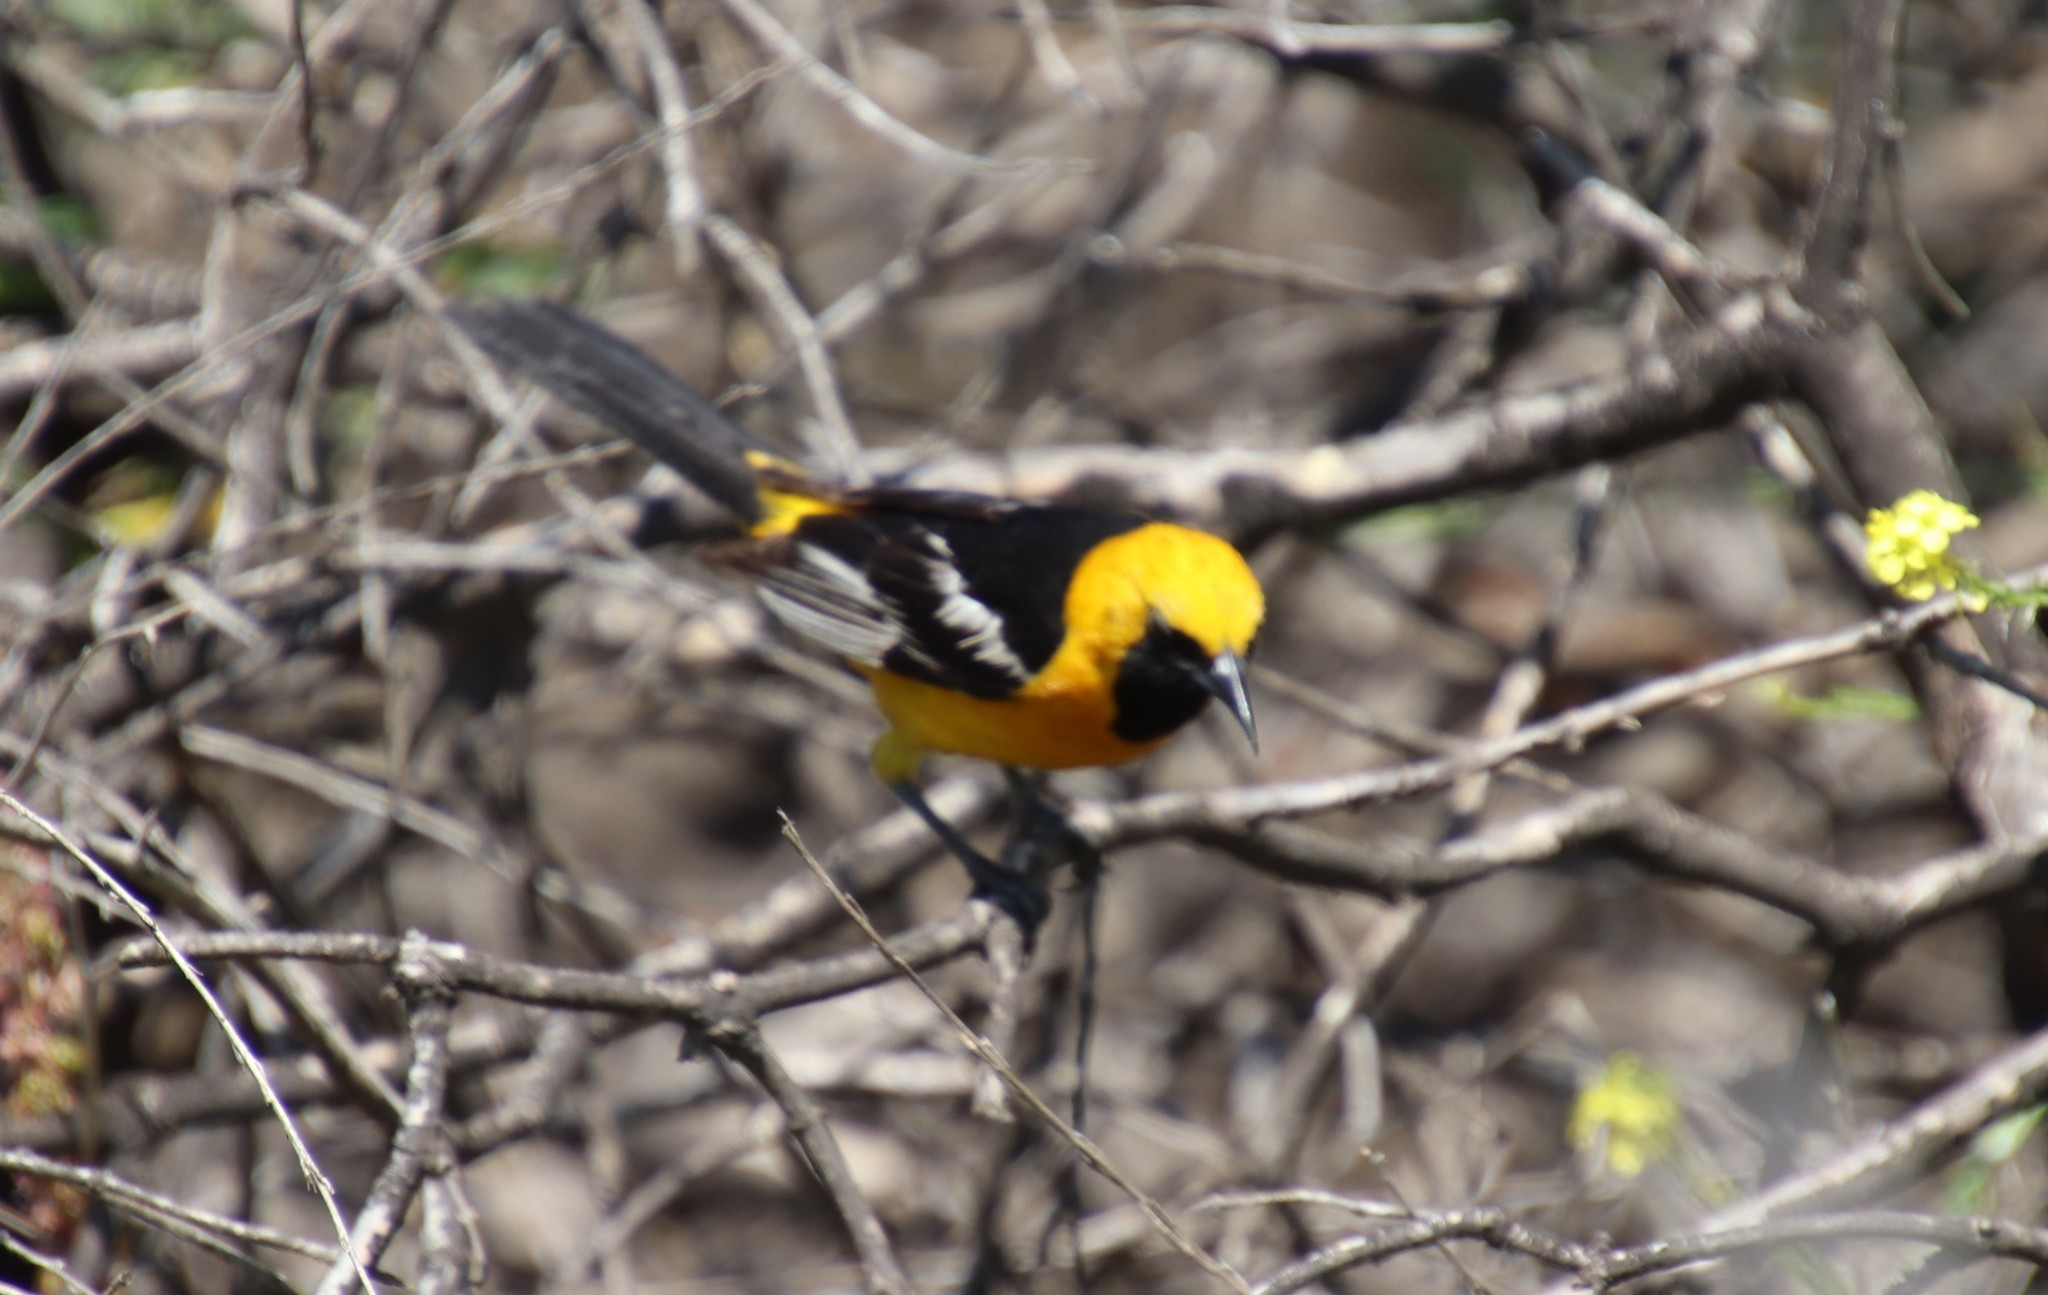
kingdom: Animalia
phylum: Chordata
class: Aves
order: Passeriformes
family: Icteridae
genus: Icterus
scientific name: Icterus cucullatus
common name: Hooded oriole
